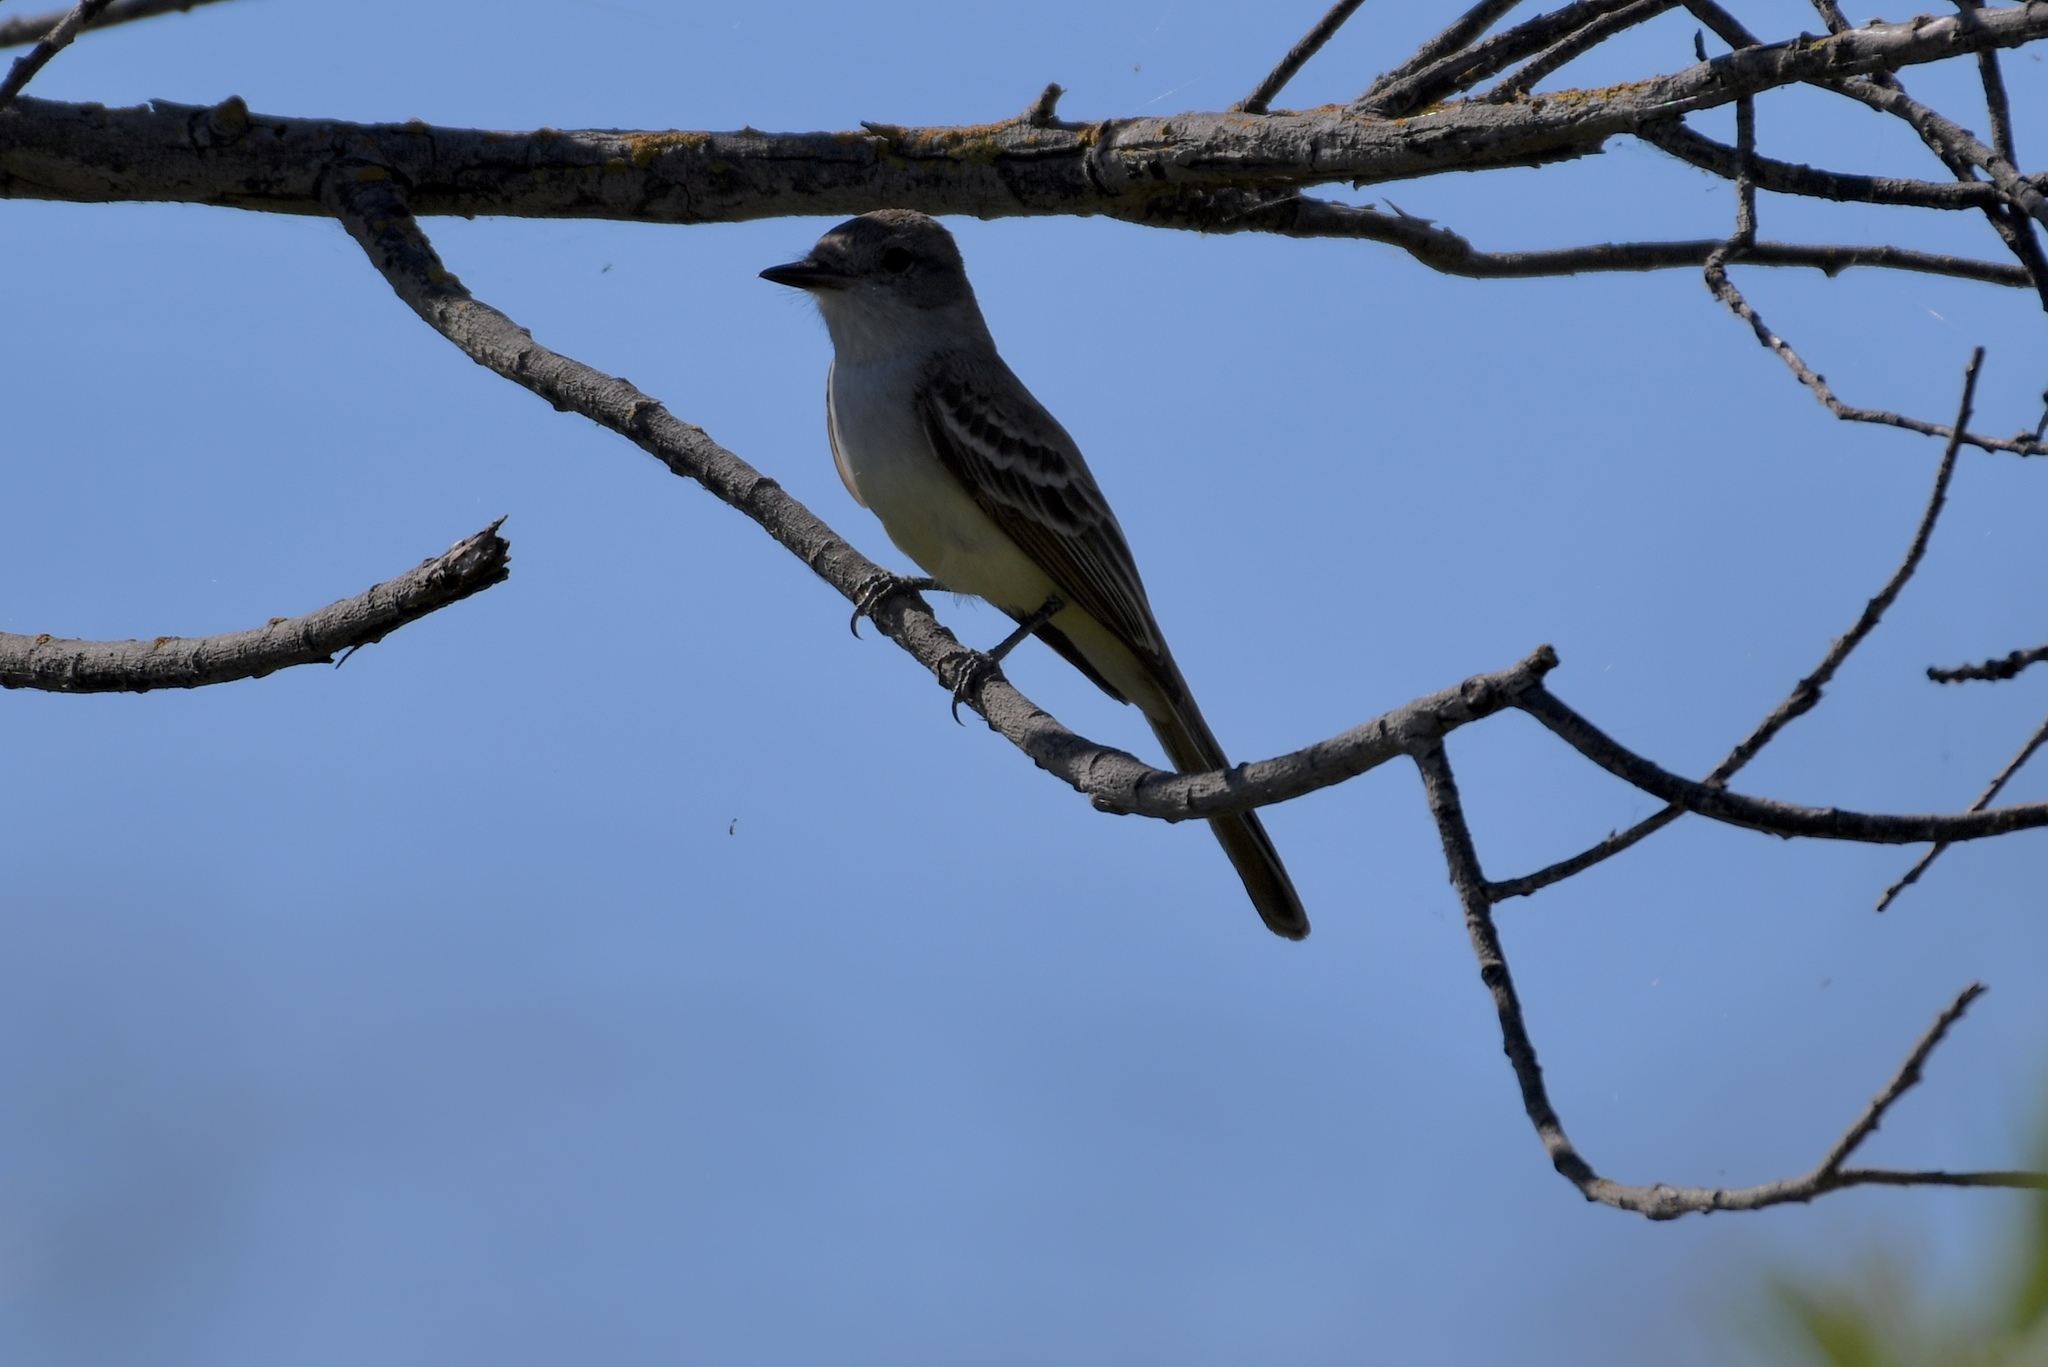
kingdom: Animalia
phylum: Chordata
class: Aves
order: Passeriformes
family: Tyrannidae
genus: Myiarchus
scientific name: Myiarchus cinerascens
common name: Ash-throated flycatcher
